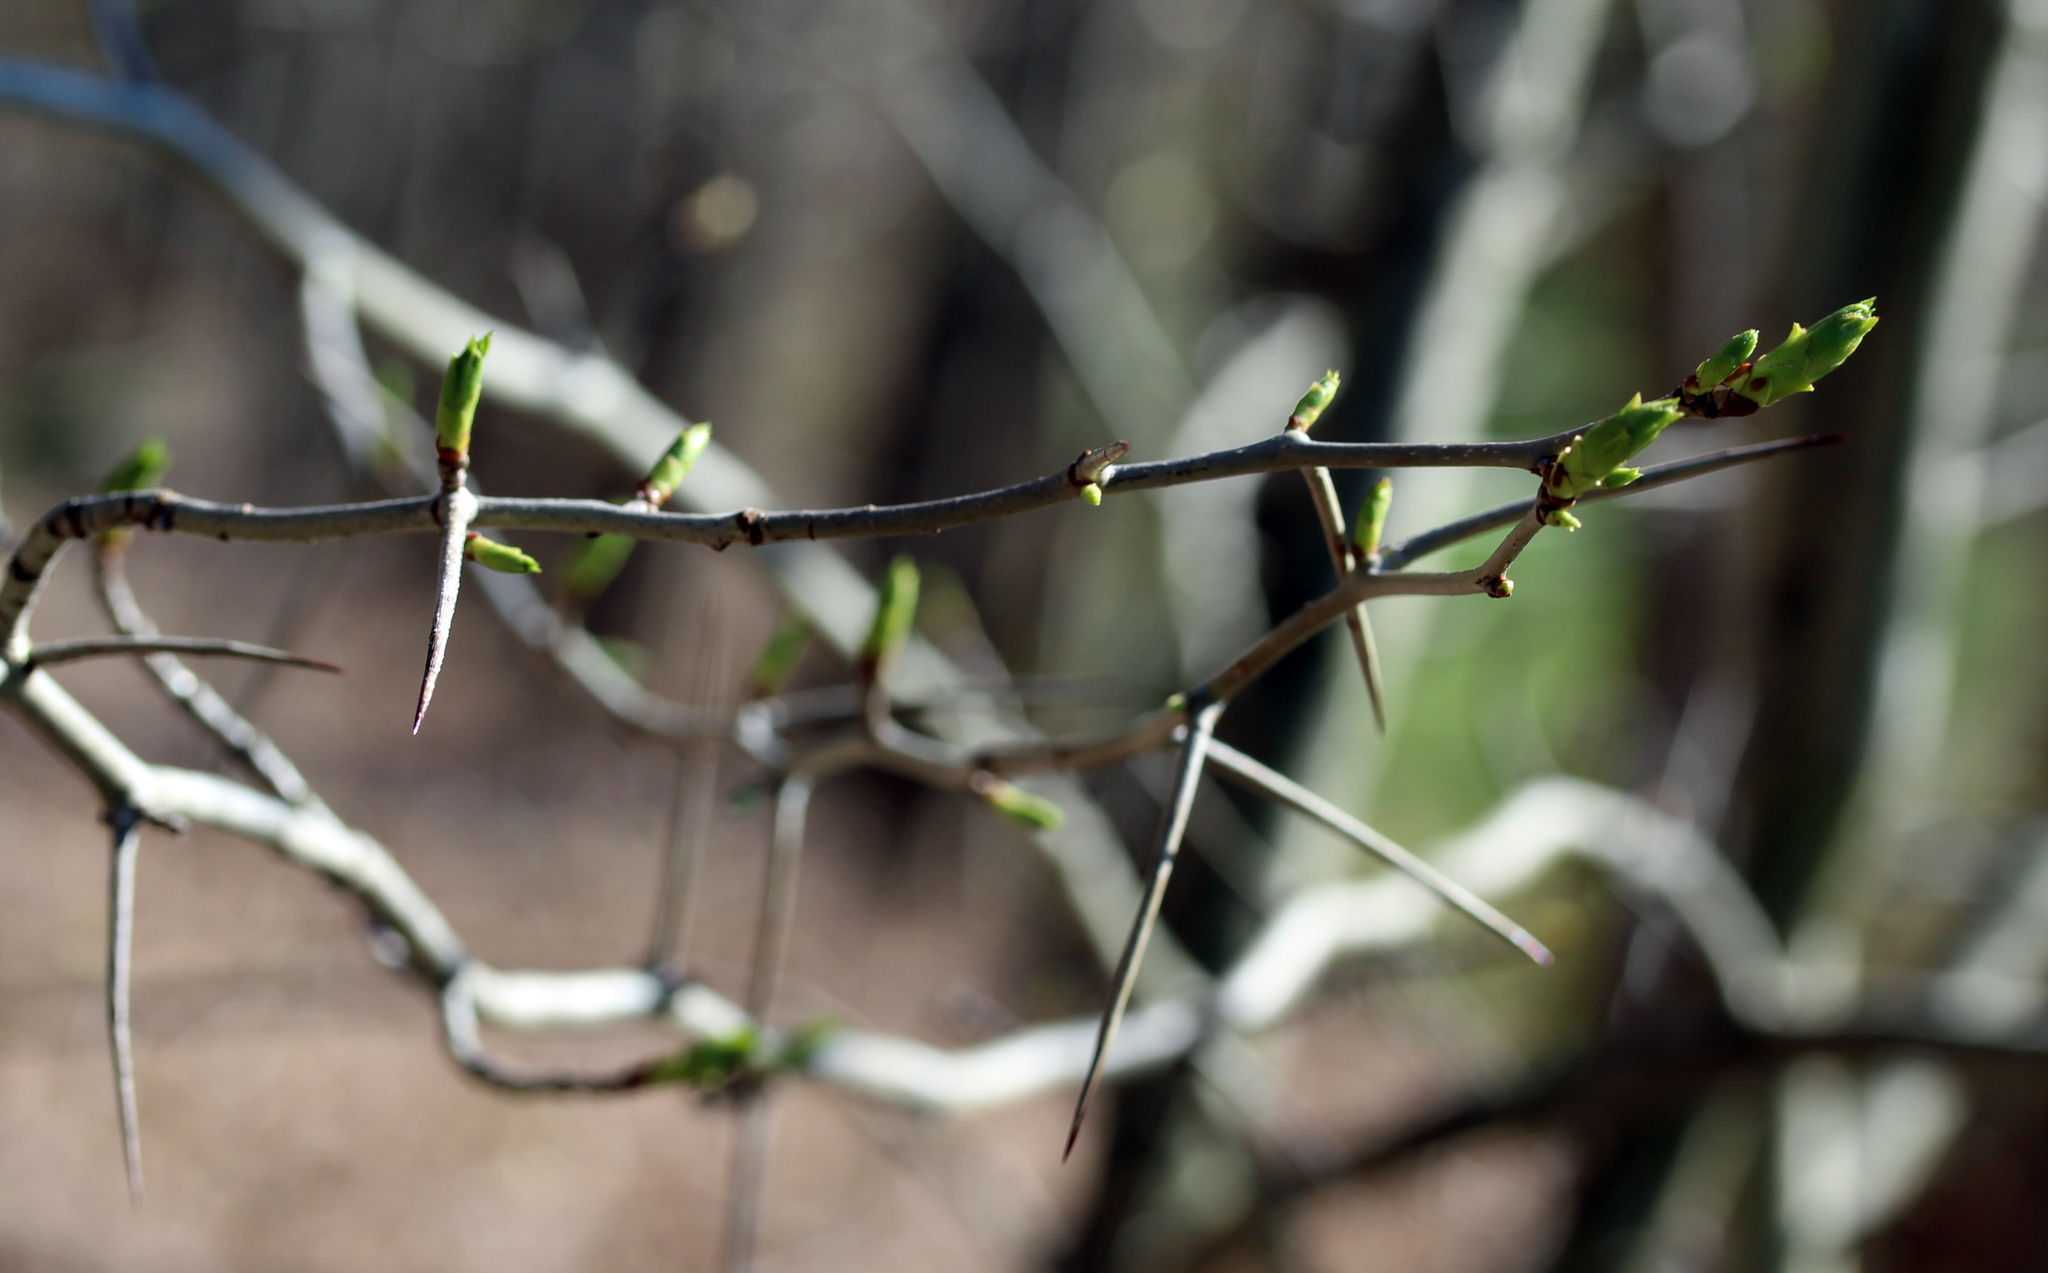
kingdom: Plantae
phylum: Tracheophyta
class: Magnoliopsida
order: Rosales
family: Rosaceae
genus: Crataegus
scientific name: Crataegus
